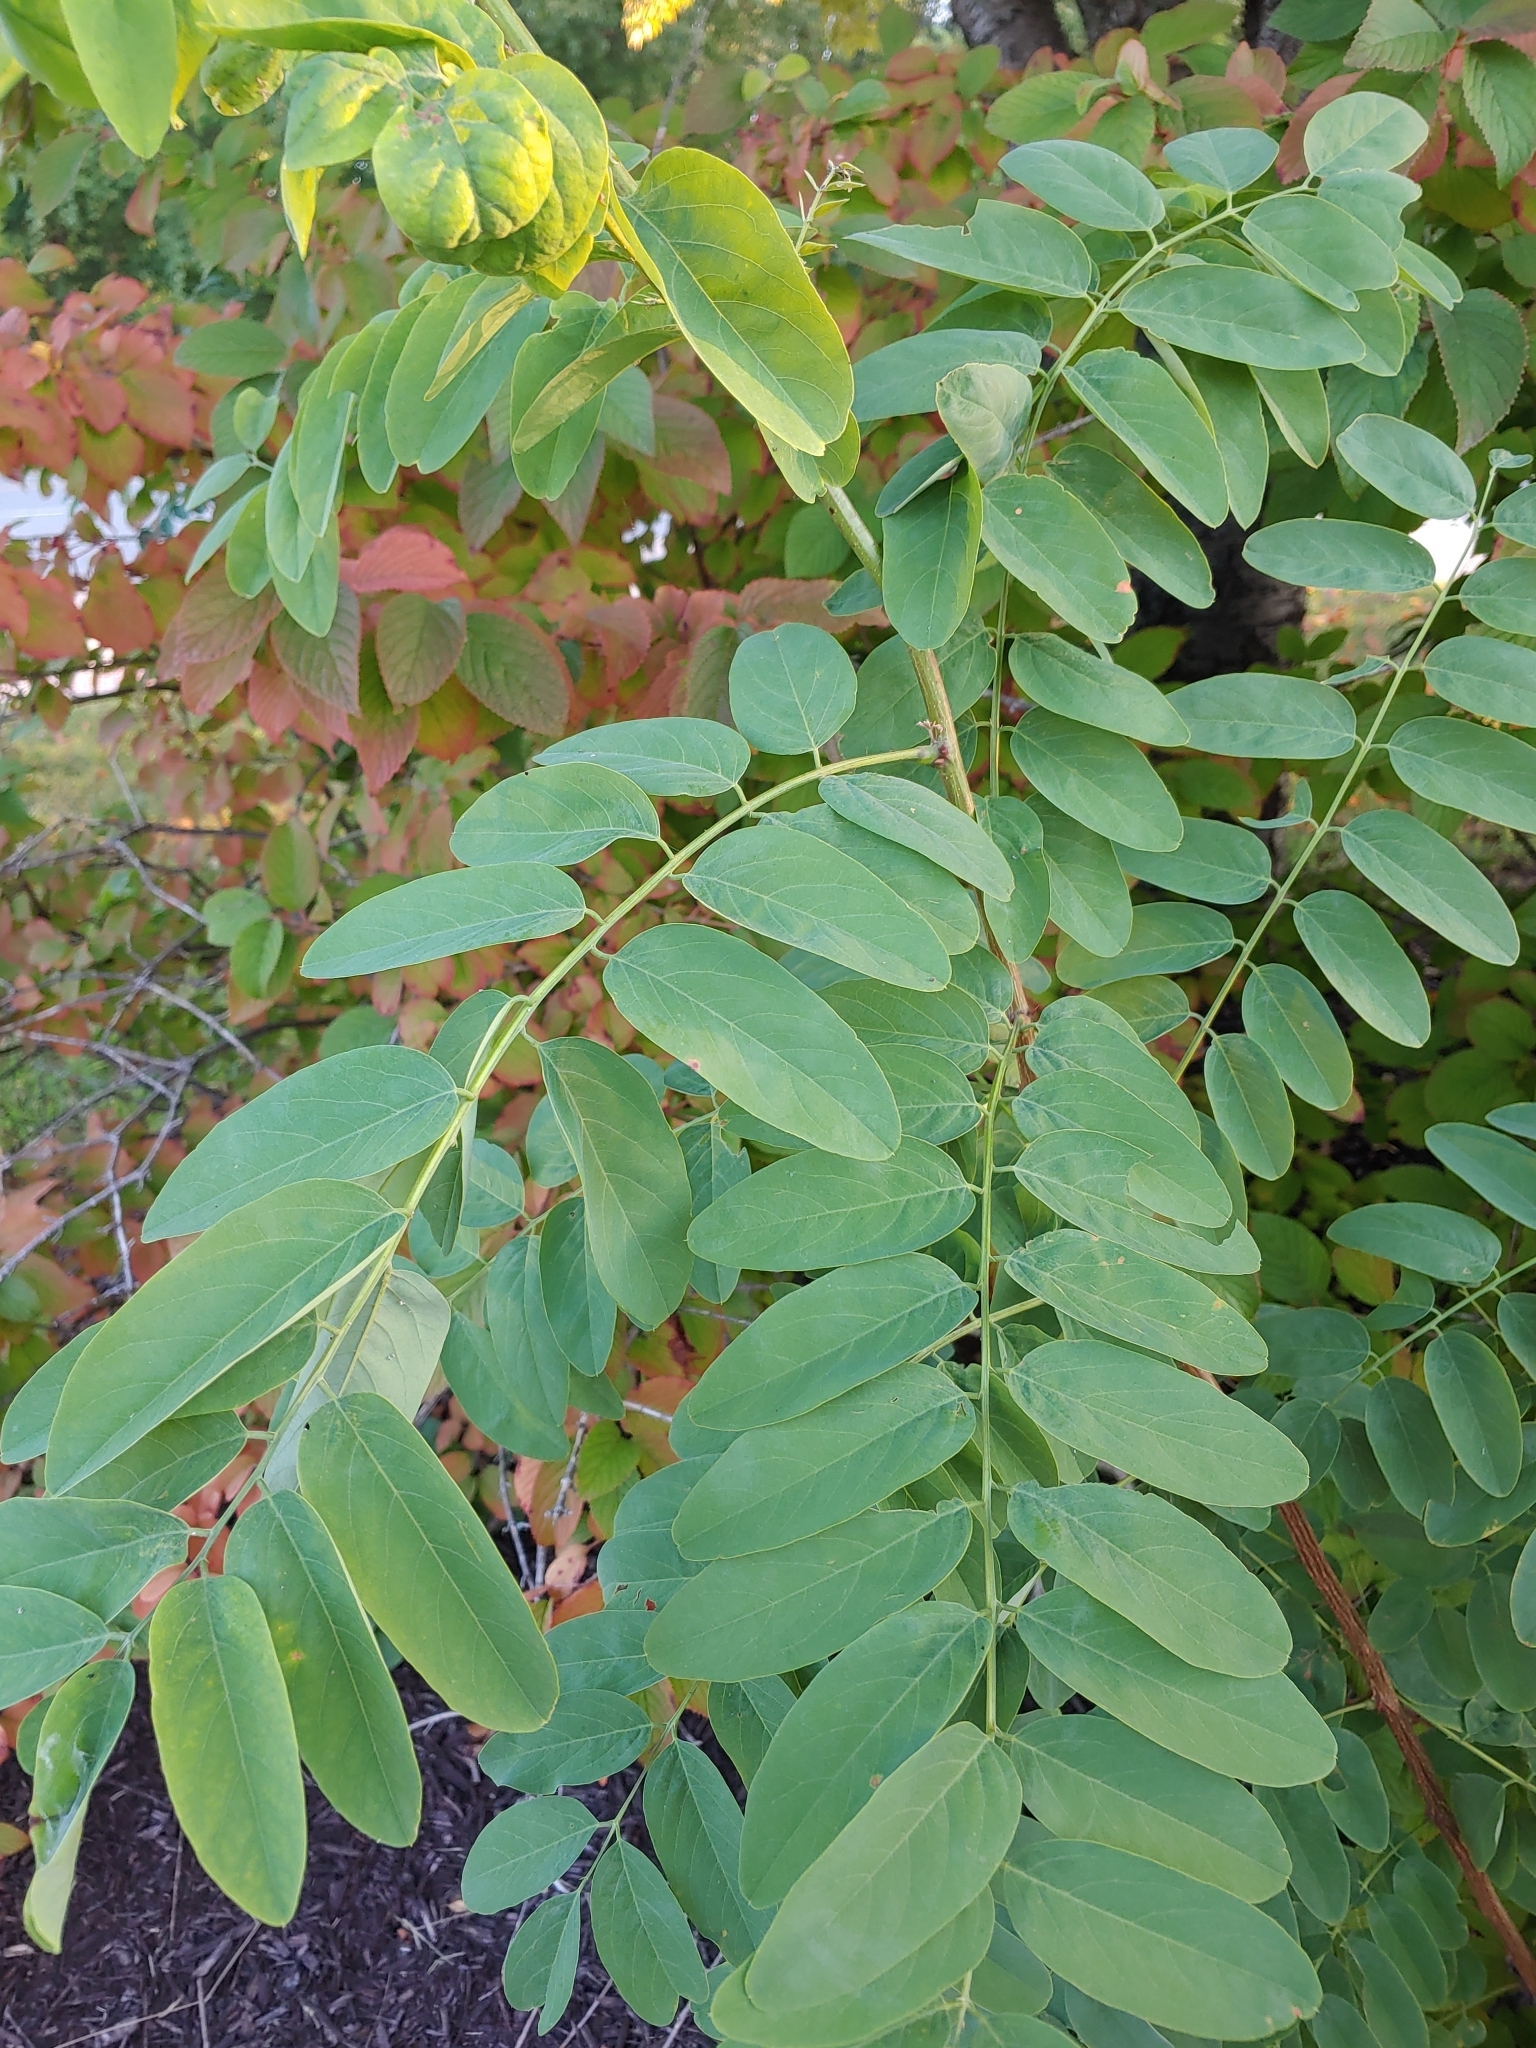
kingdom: Plantae
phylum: Tracheophyta
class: Magnoliopsida
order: Fabales
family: Fabaceae
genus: Robinia
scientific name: Robinia pseudoacacia
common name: Black locust
